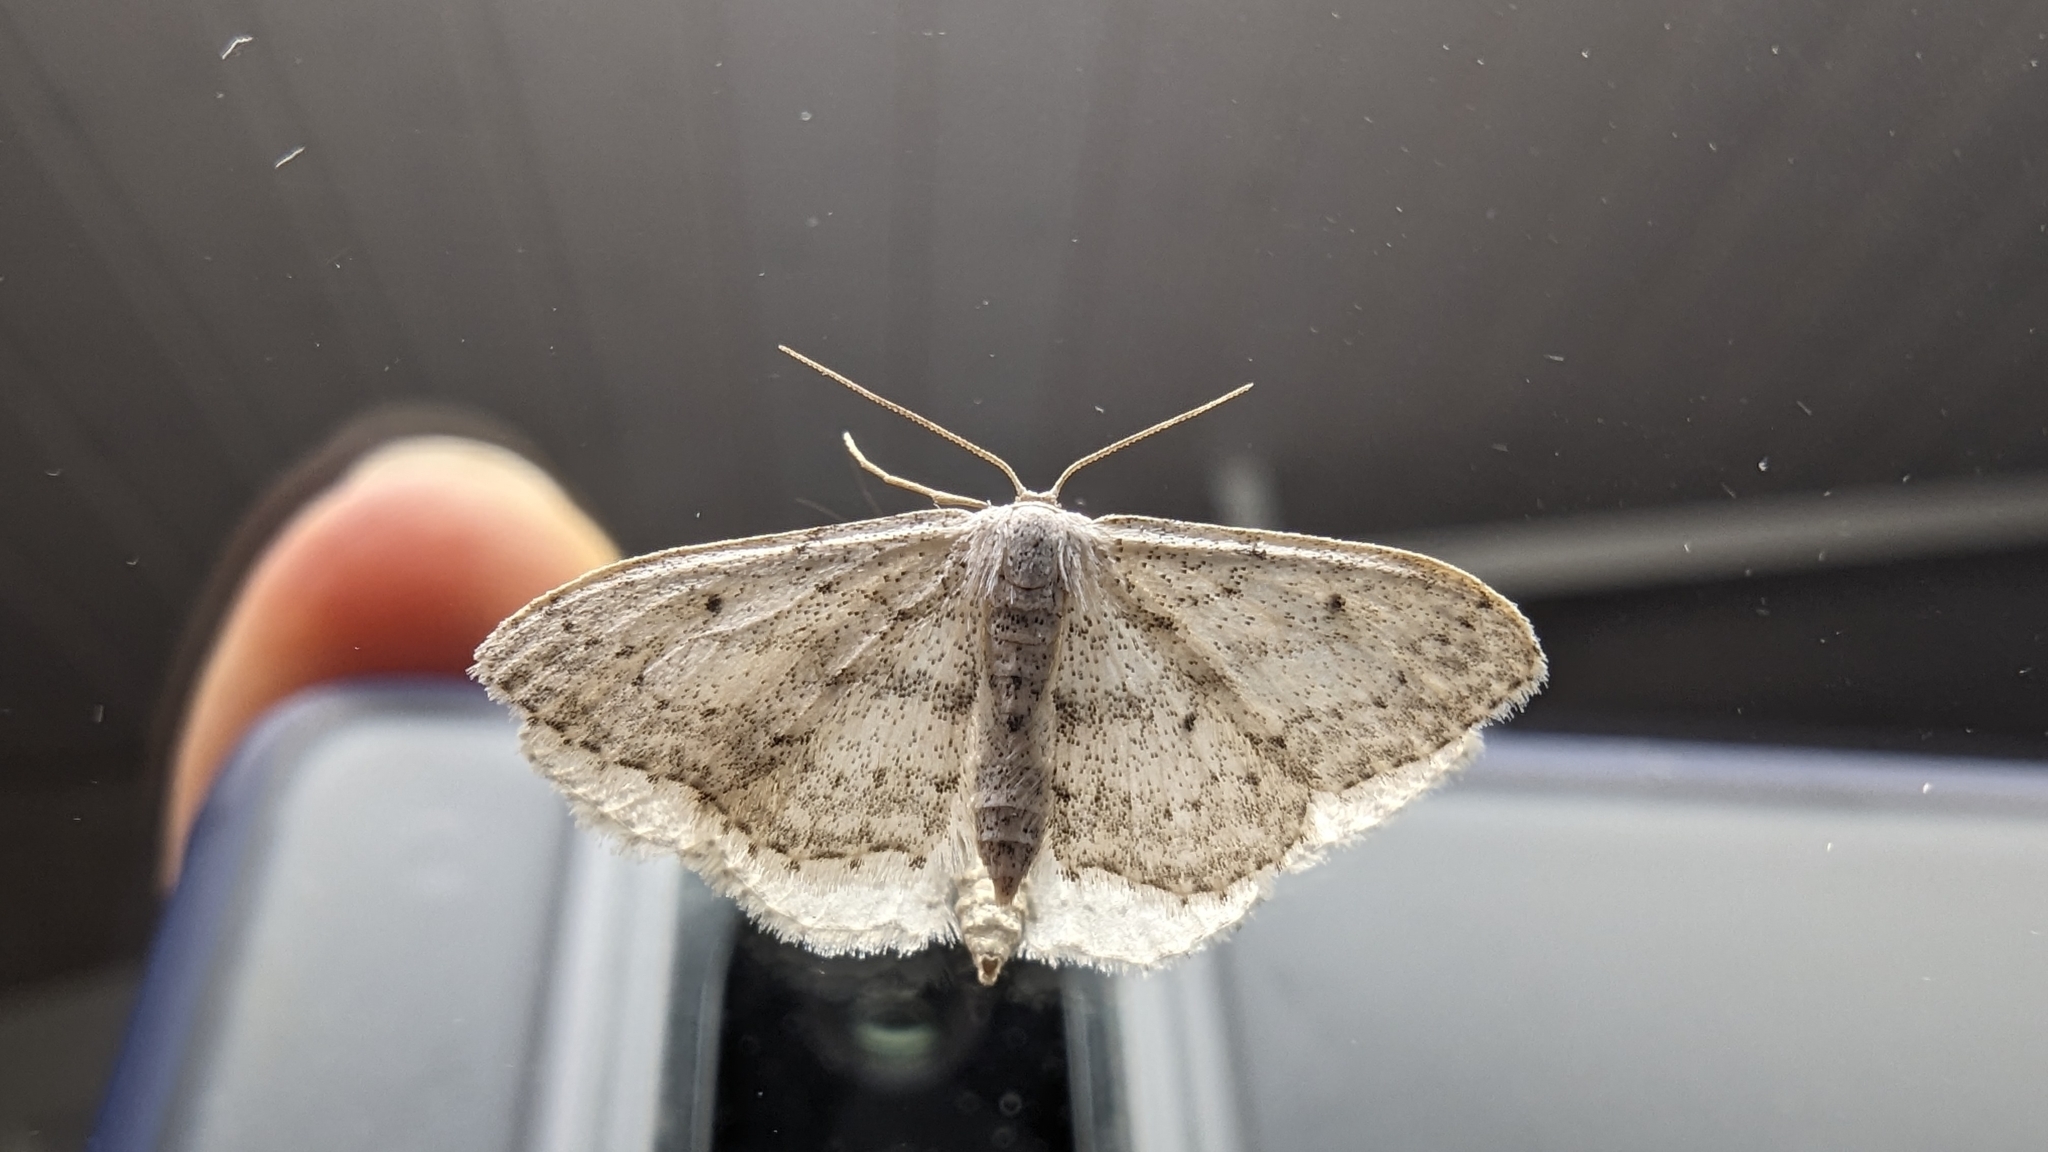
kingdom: Animalia
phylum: Arthropoda
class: Insecta
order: Lepidoptera
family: Geometridae
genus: Idaea
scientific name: Idaea seriata
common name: Small dusty wave
